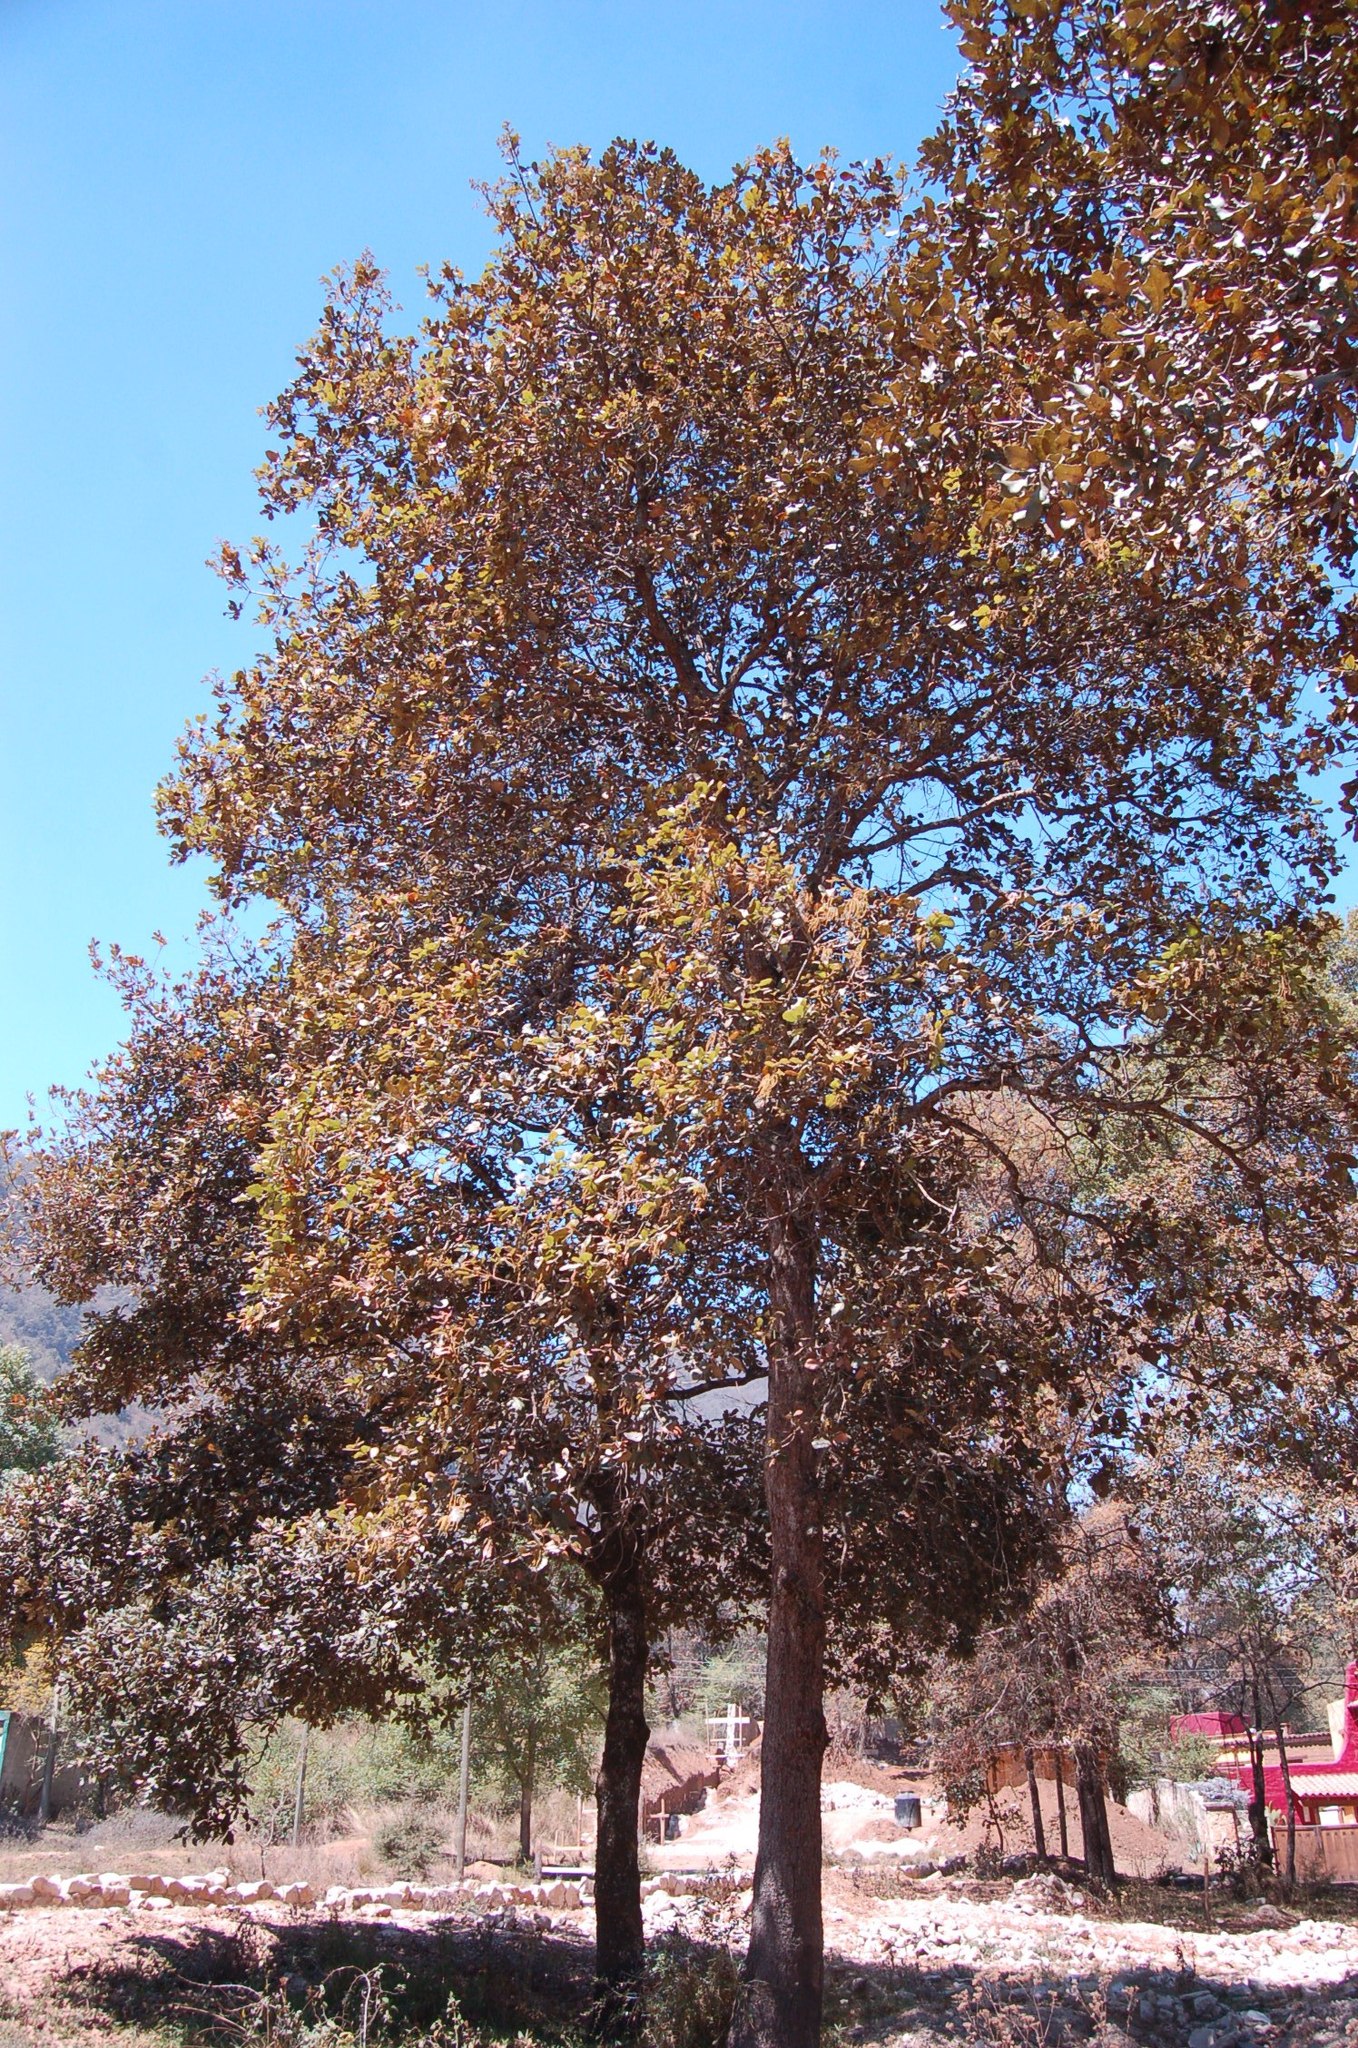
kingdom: Plantae
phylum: Tracheophyta
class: Magnoliopsida
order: Fagales
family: Fagaceae
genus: Quercus
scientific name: Quercus rugosa
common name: Netleaf oak
